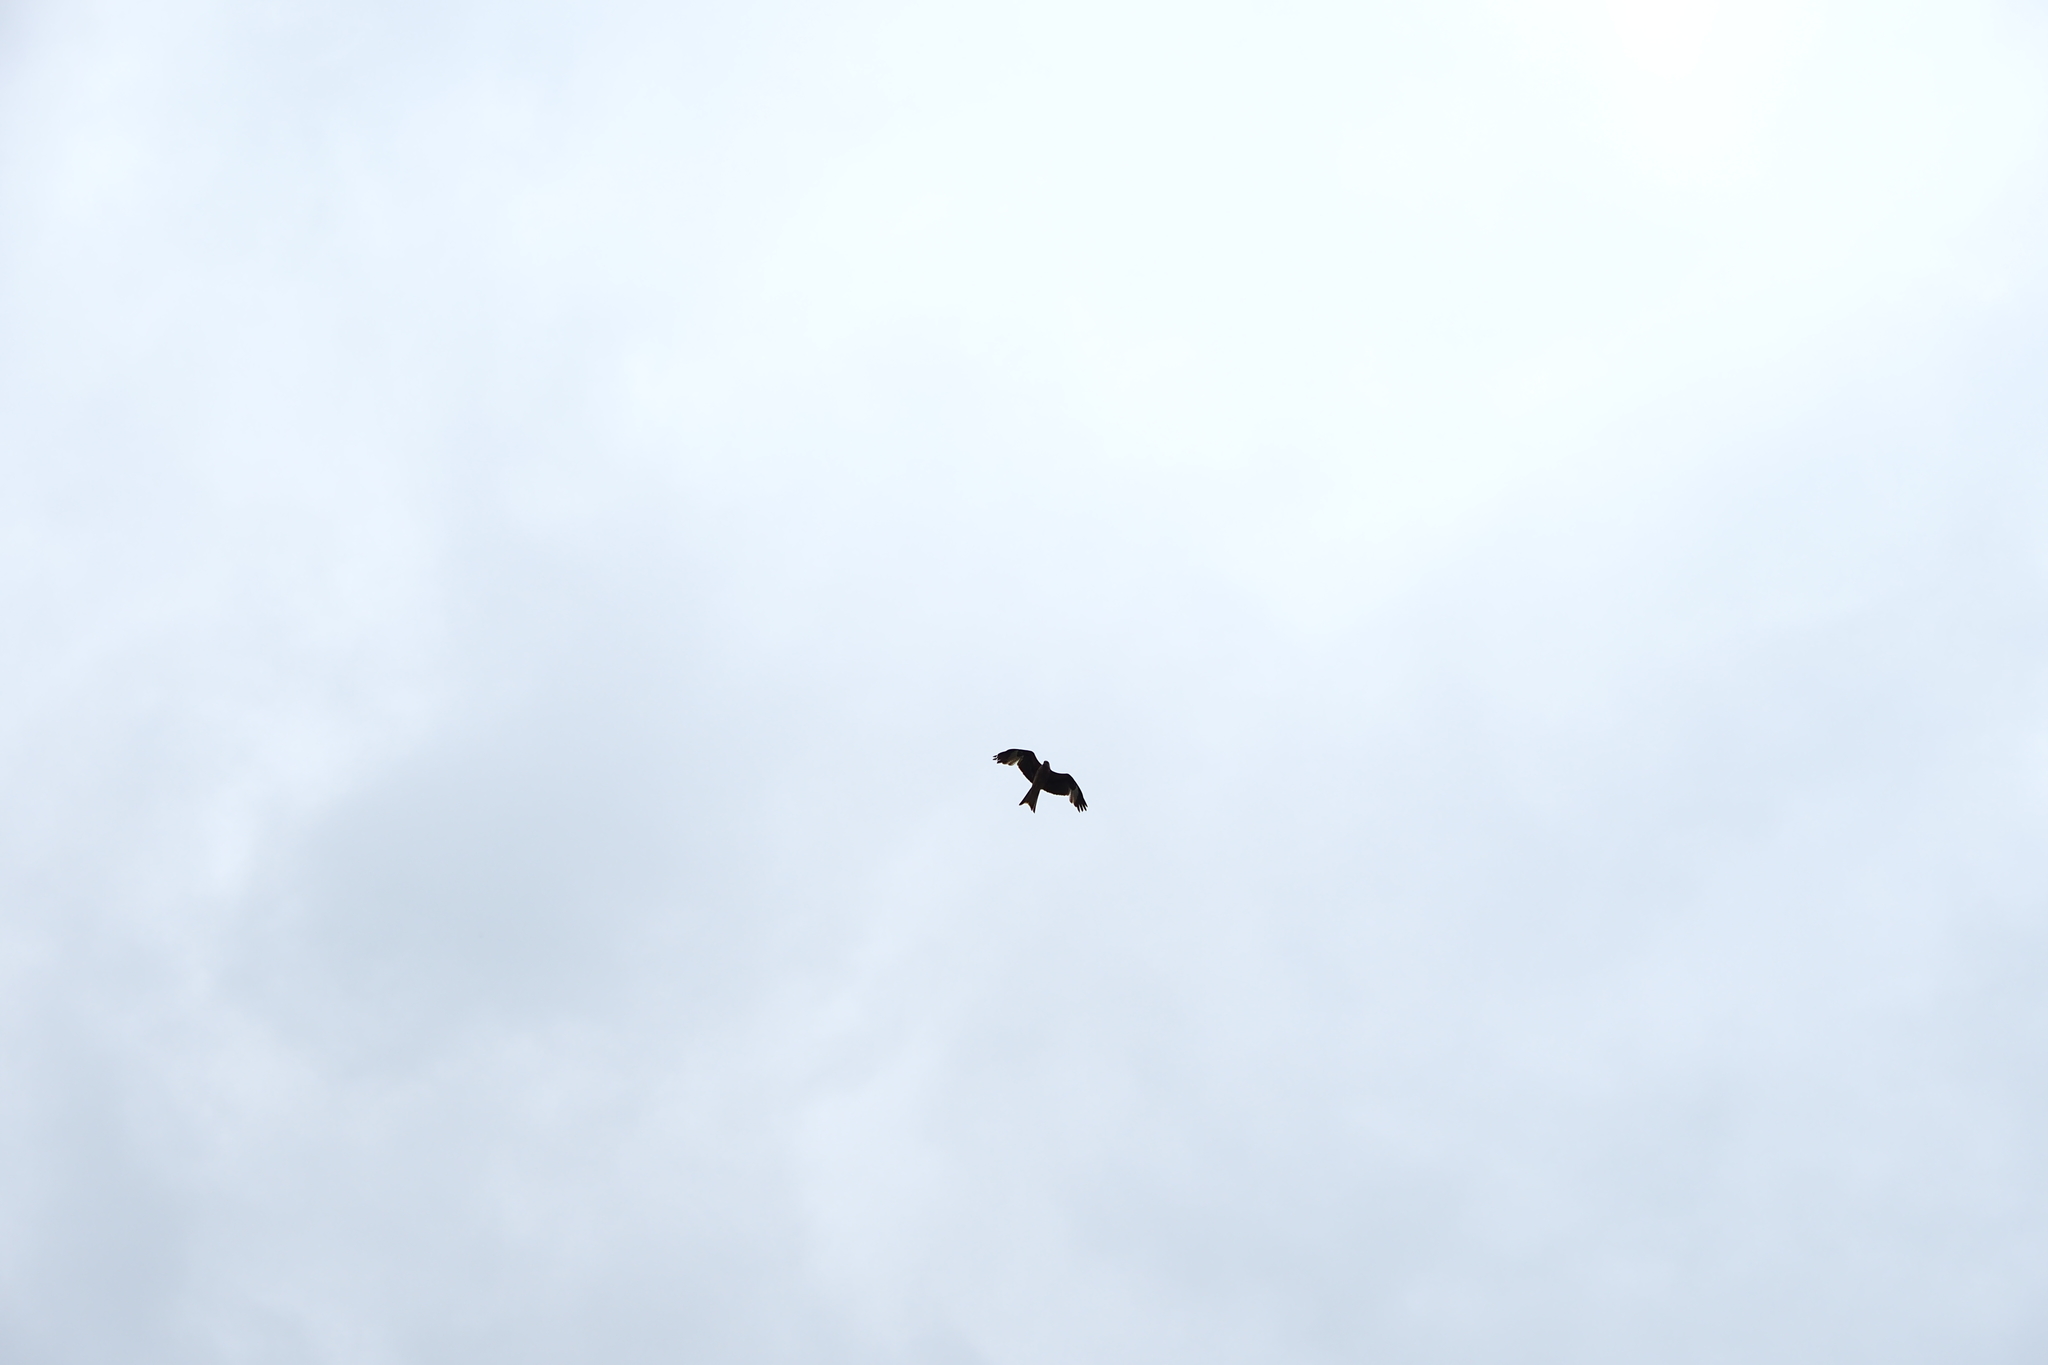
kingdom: Animalia
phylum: Chordata
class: Aves
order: Accipitriformes
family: Accipitridae
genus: Milvus
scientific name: Milvus milvus
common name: Red kite
